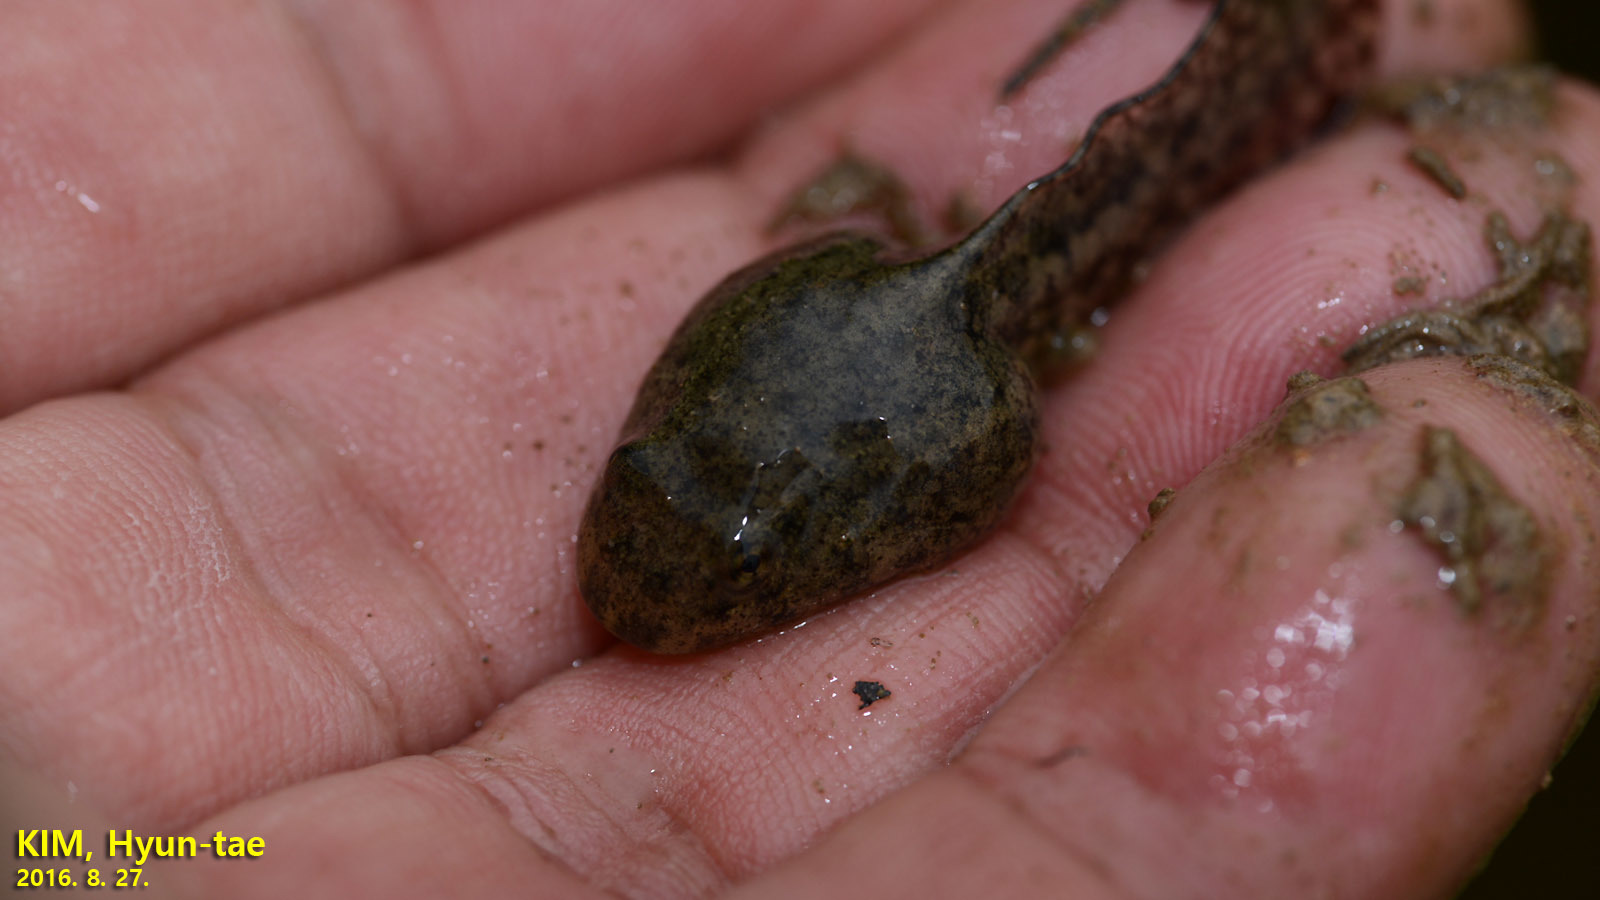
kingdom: Animalia
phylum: Chordata
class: Amphibia
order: Anura
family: Ranidae
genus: Glandirana
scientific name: Glandirana emeljanovi
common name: Northeast china rough-skinned frog
